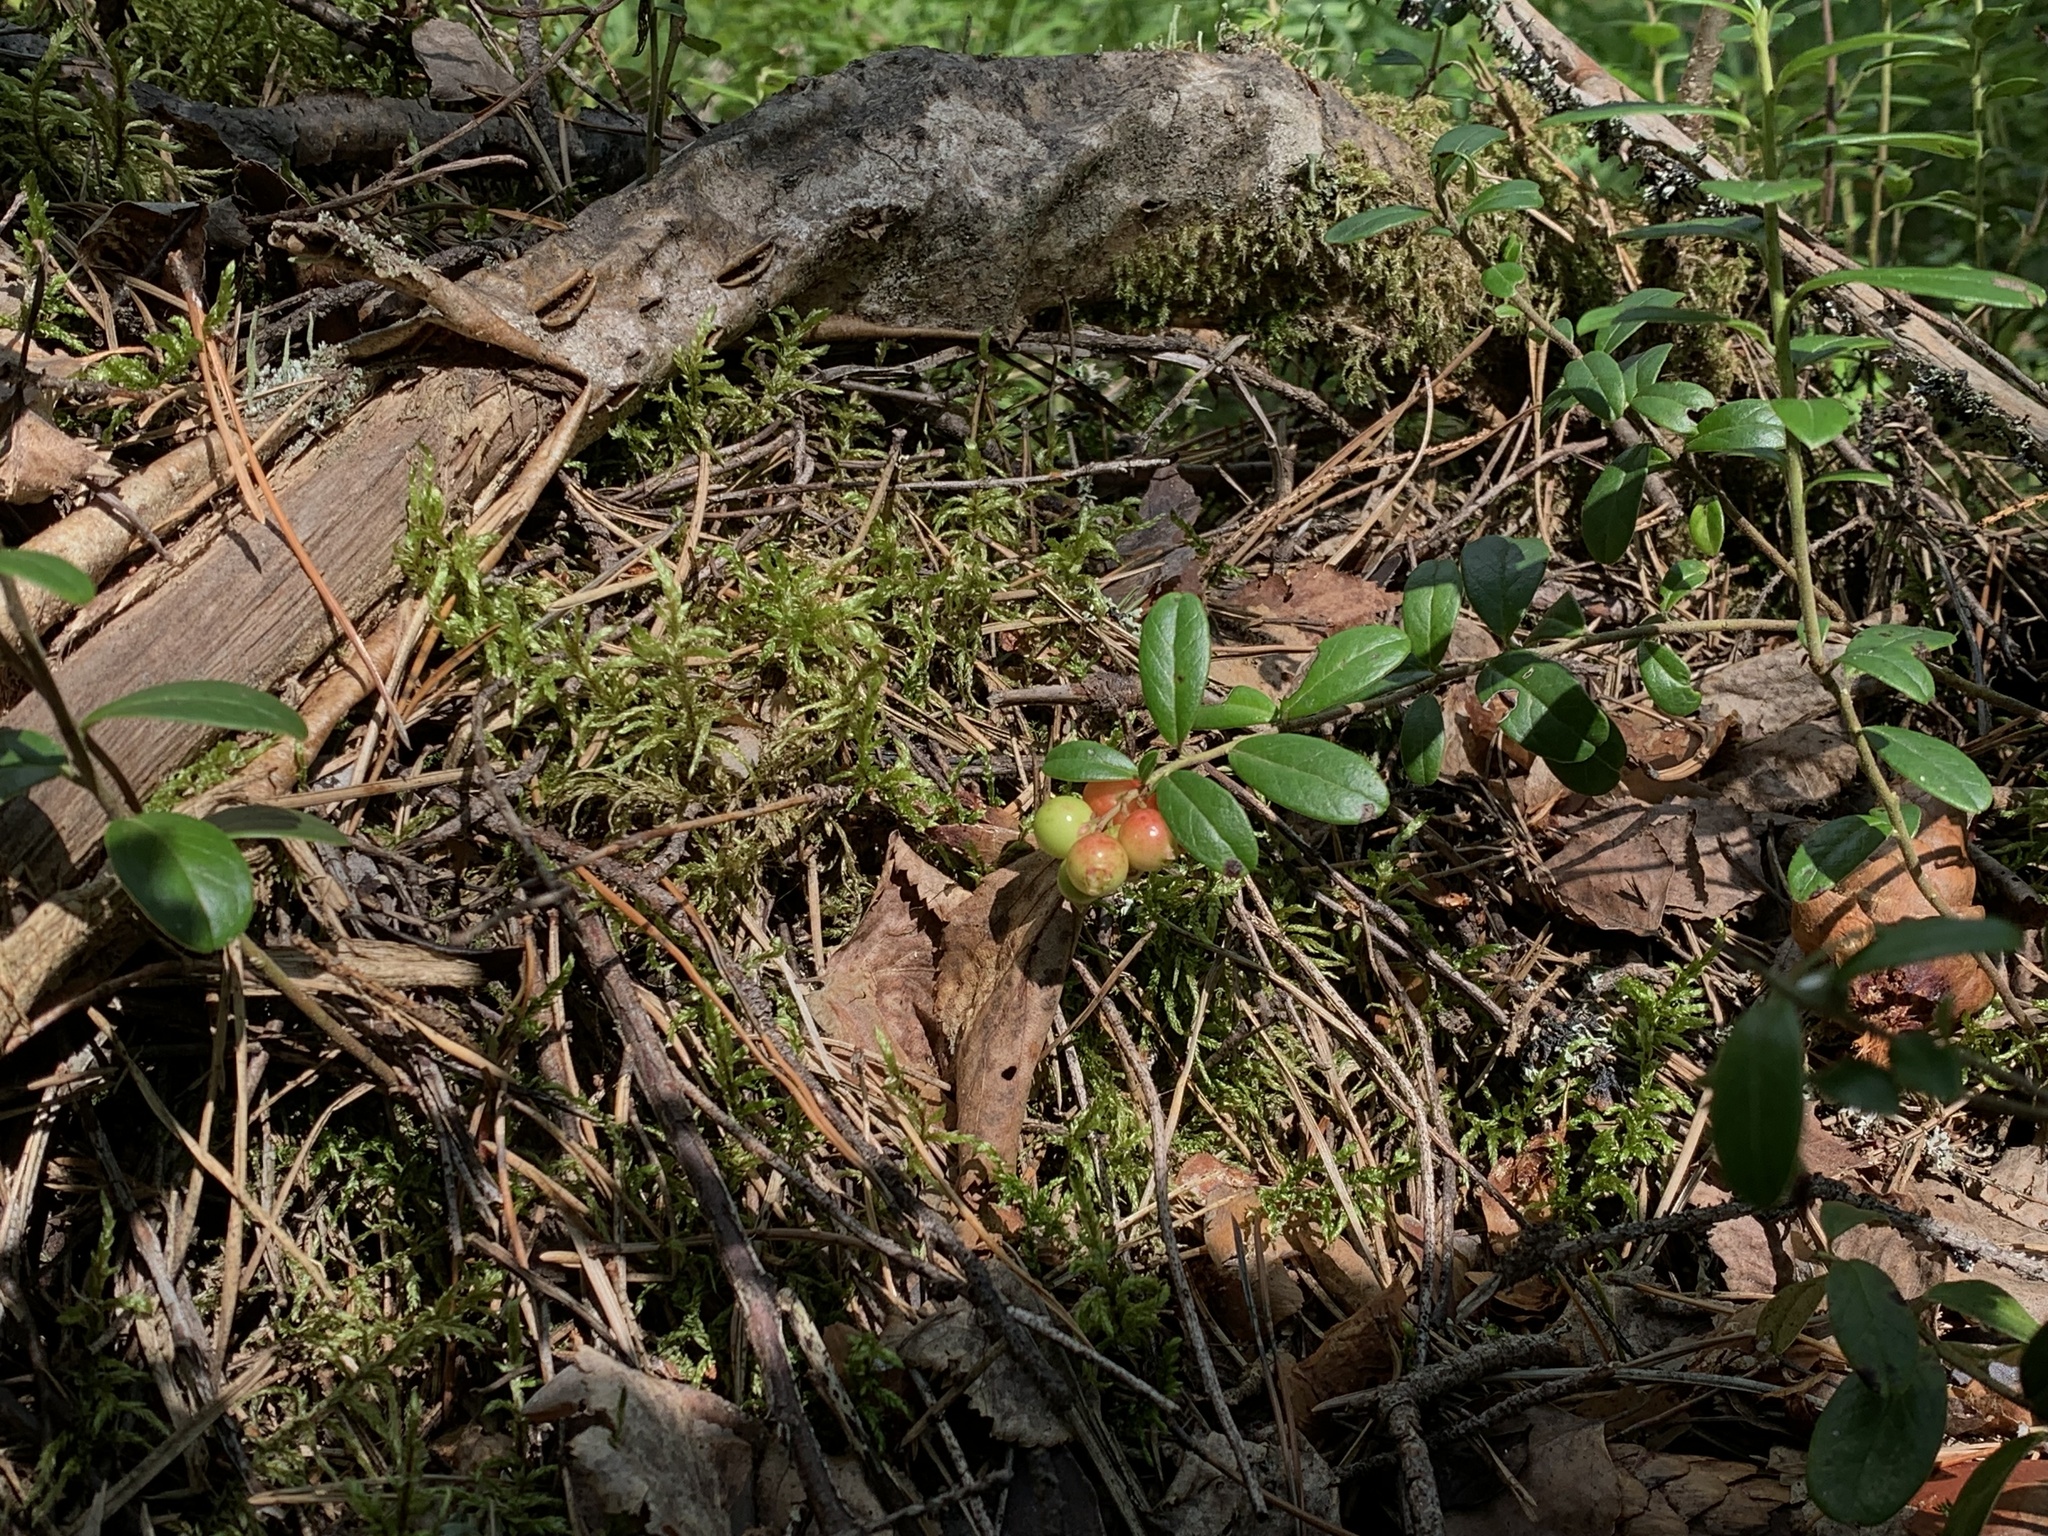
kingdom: Plantae
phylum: Tracheophyta
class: Magnoliopsida
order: Ericales
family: Ericaceae
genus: Vaccinium
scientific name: Vaccinium vitis-idaea
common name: Cowberry
